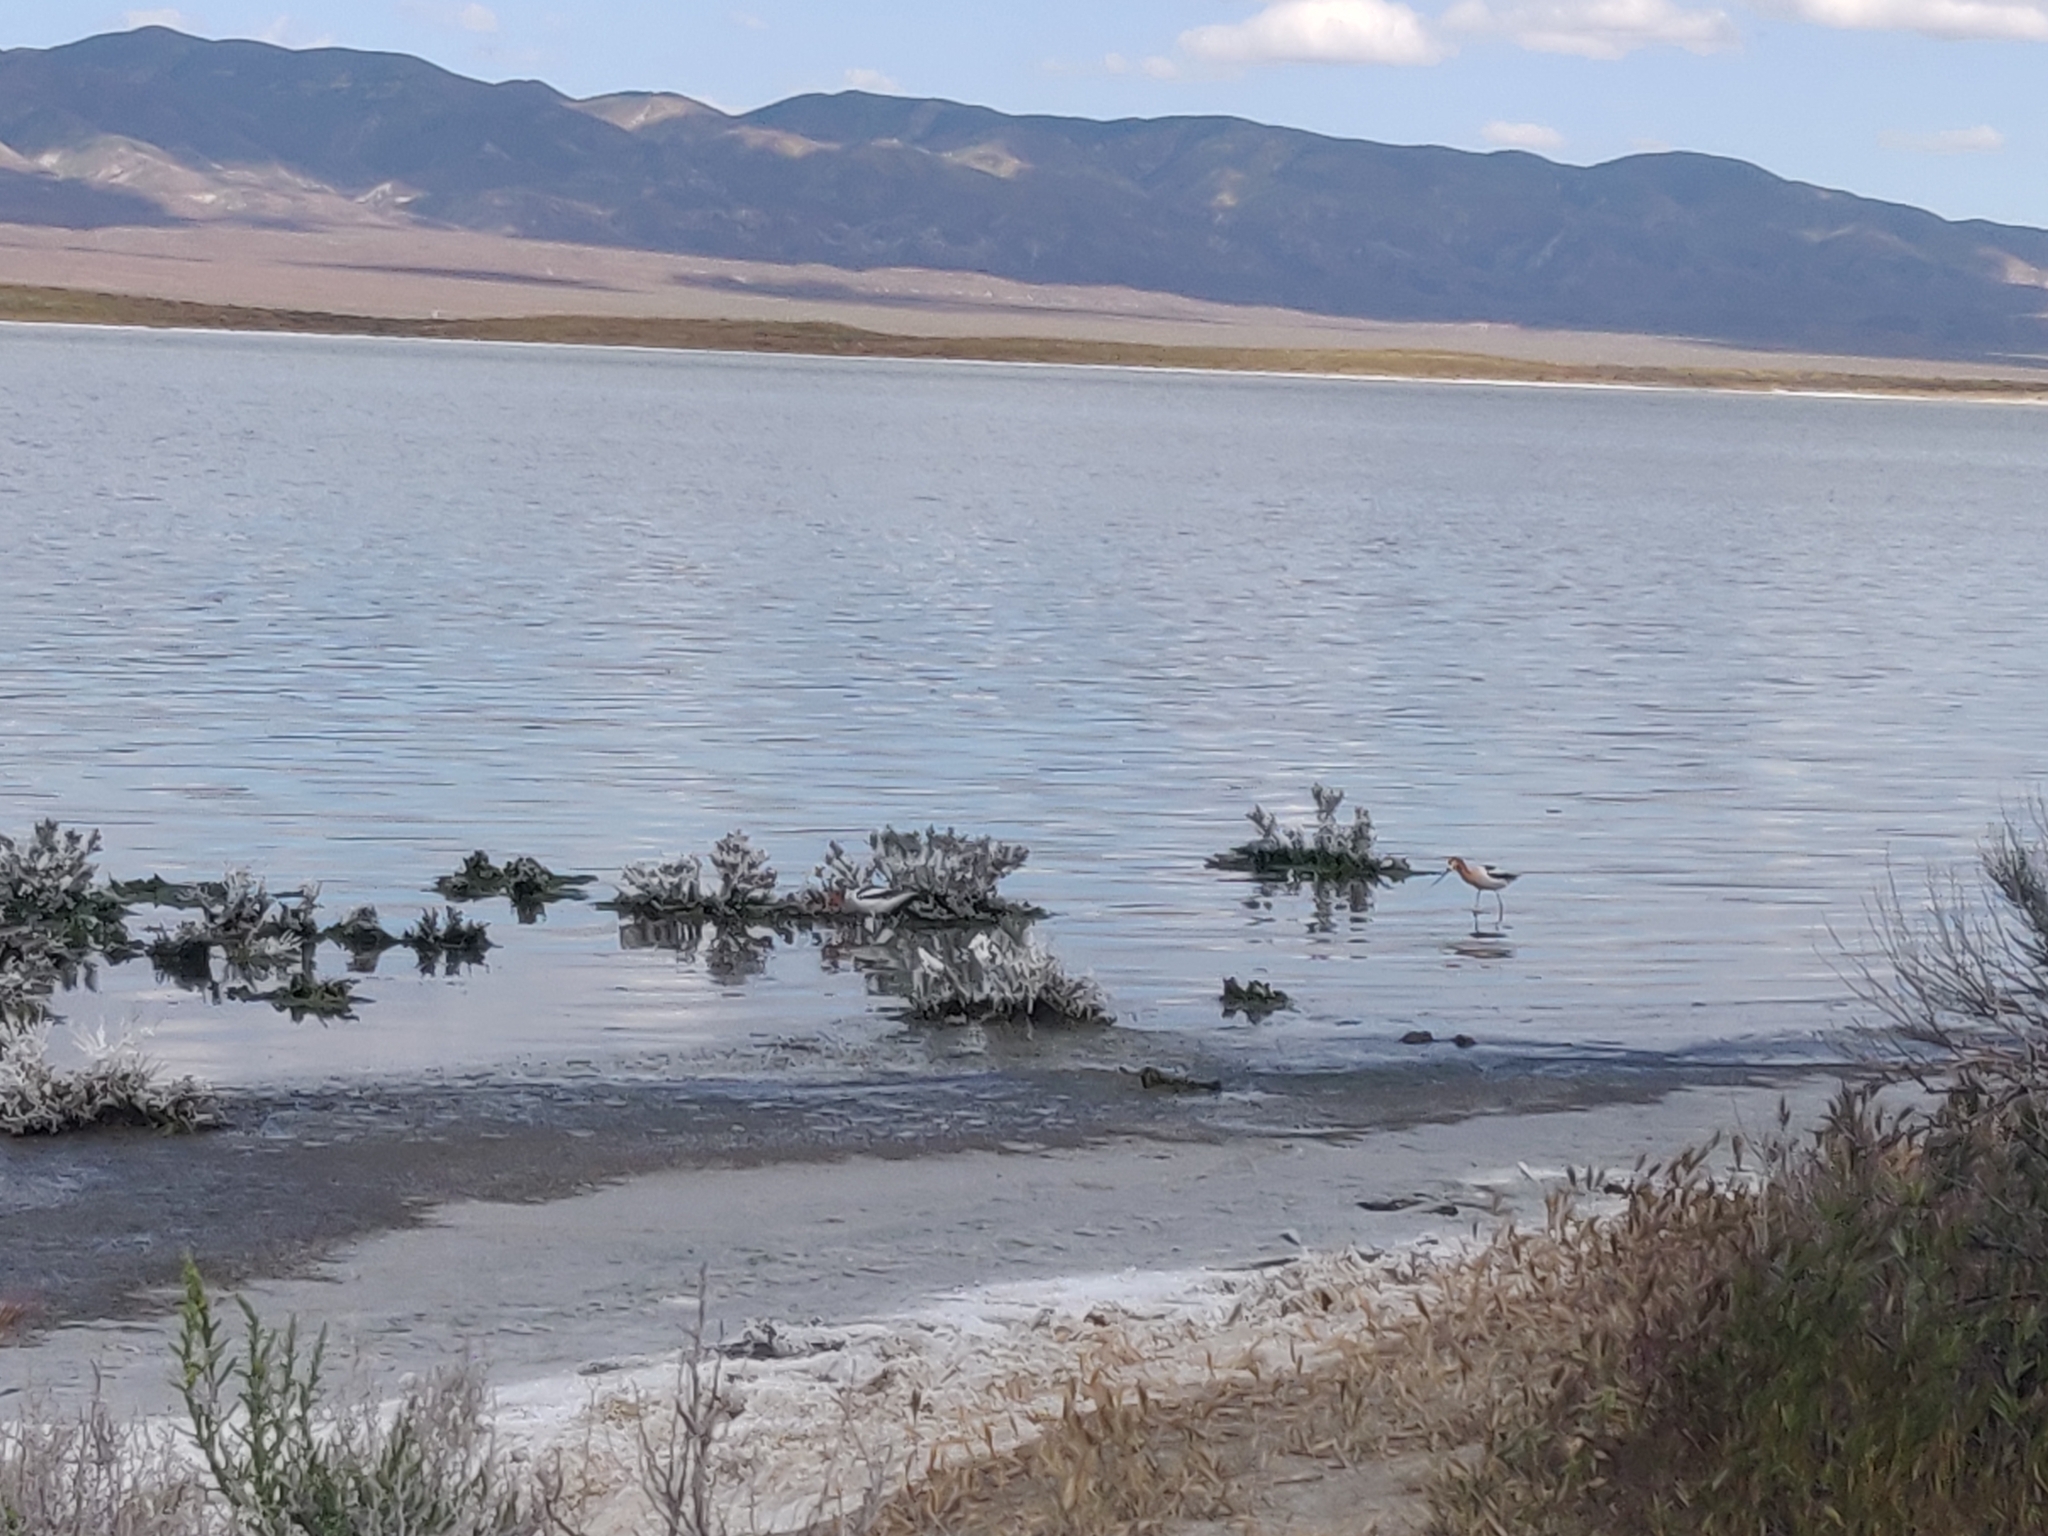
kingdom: Animalia
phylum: Chordata
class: Aves
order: Charadriiformes
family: Recurvirostridae
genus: Recurvirostra
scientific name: Recurvirostra americana
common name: American avocet
